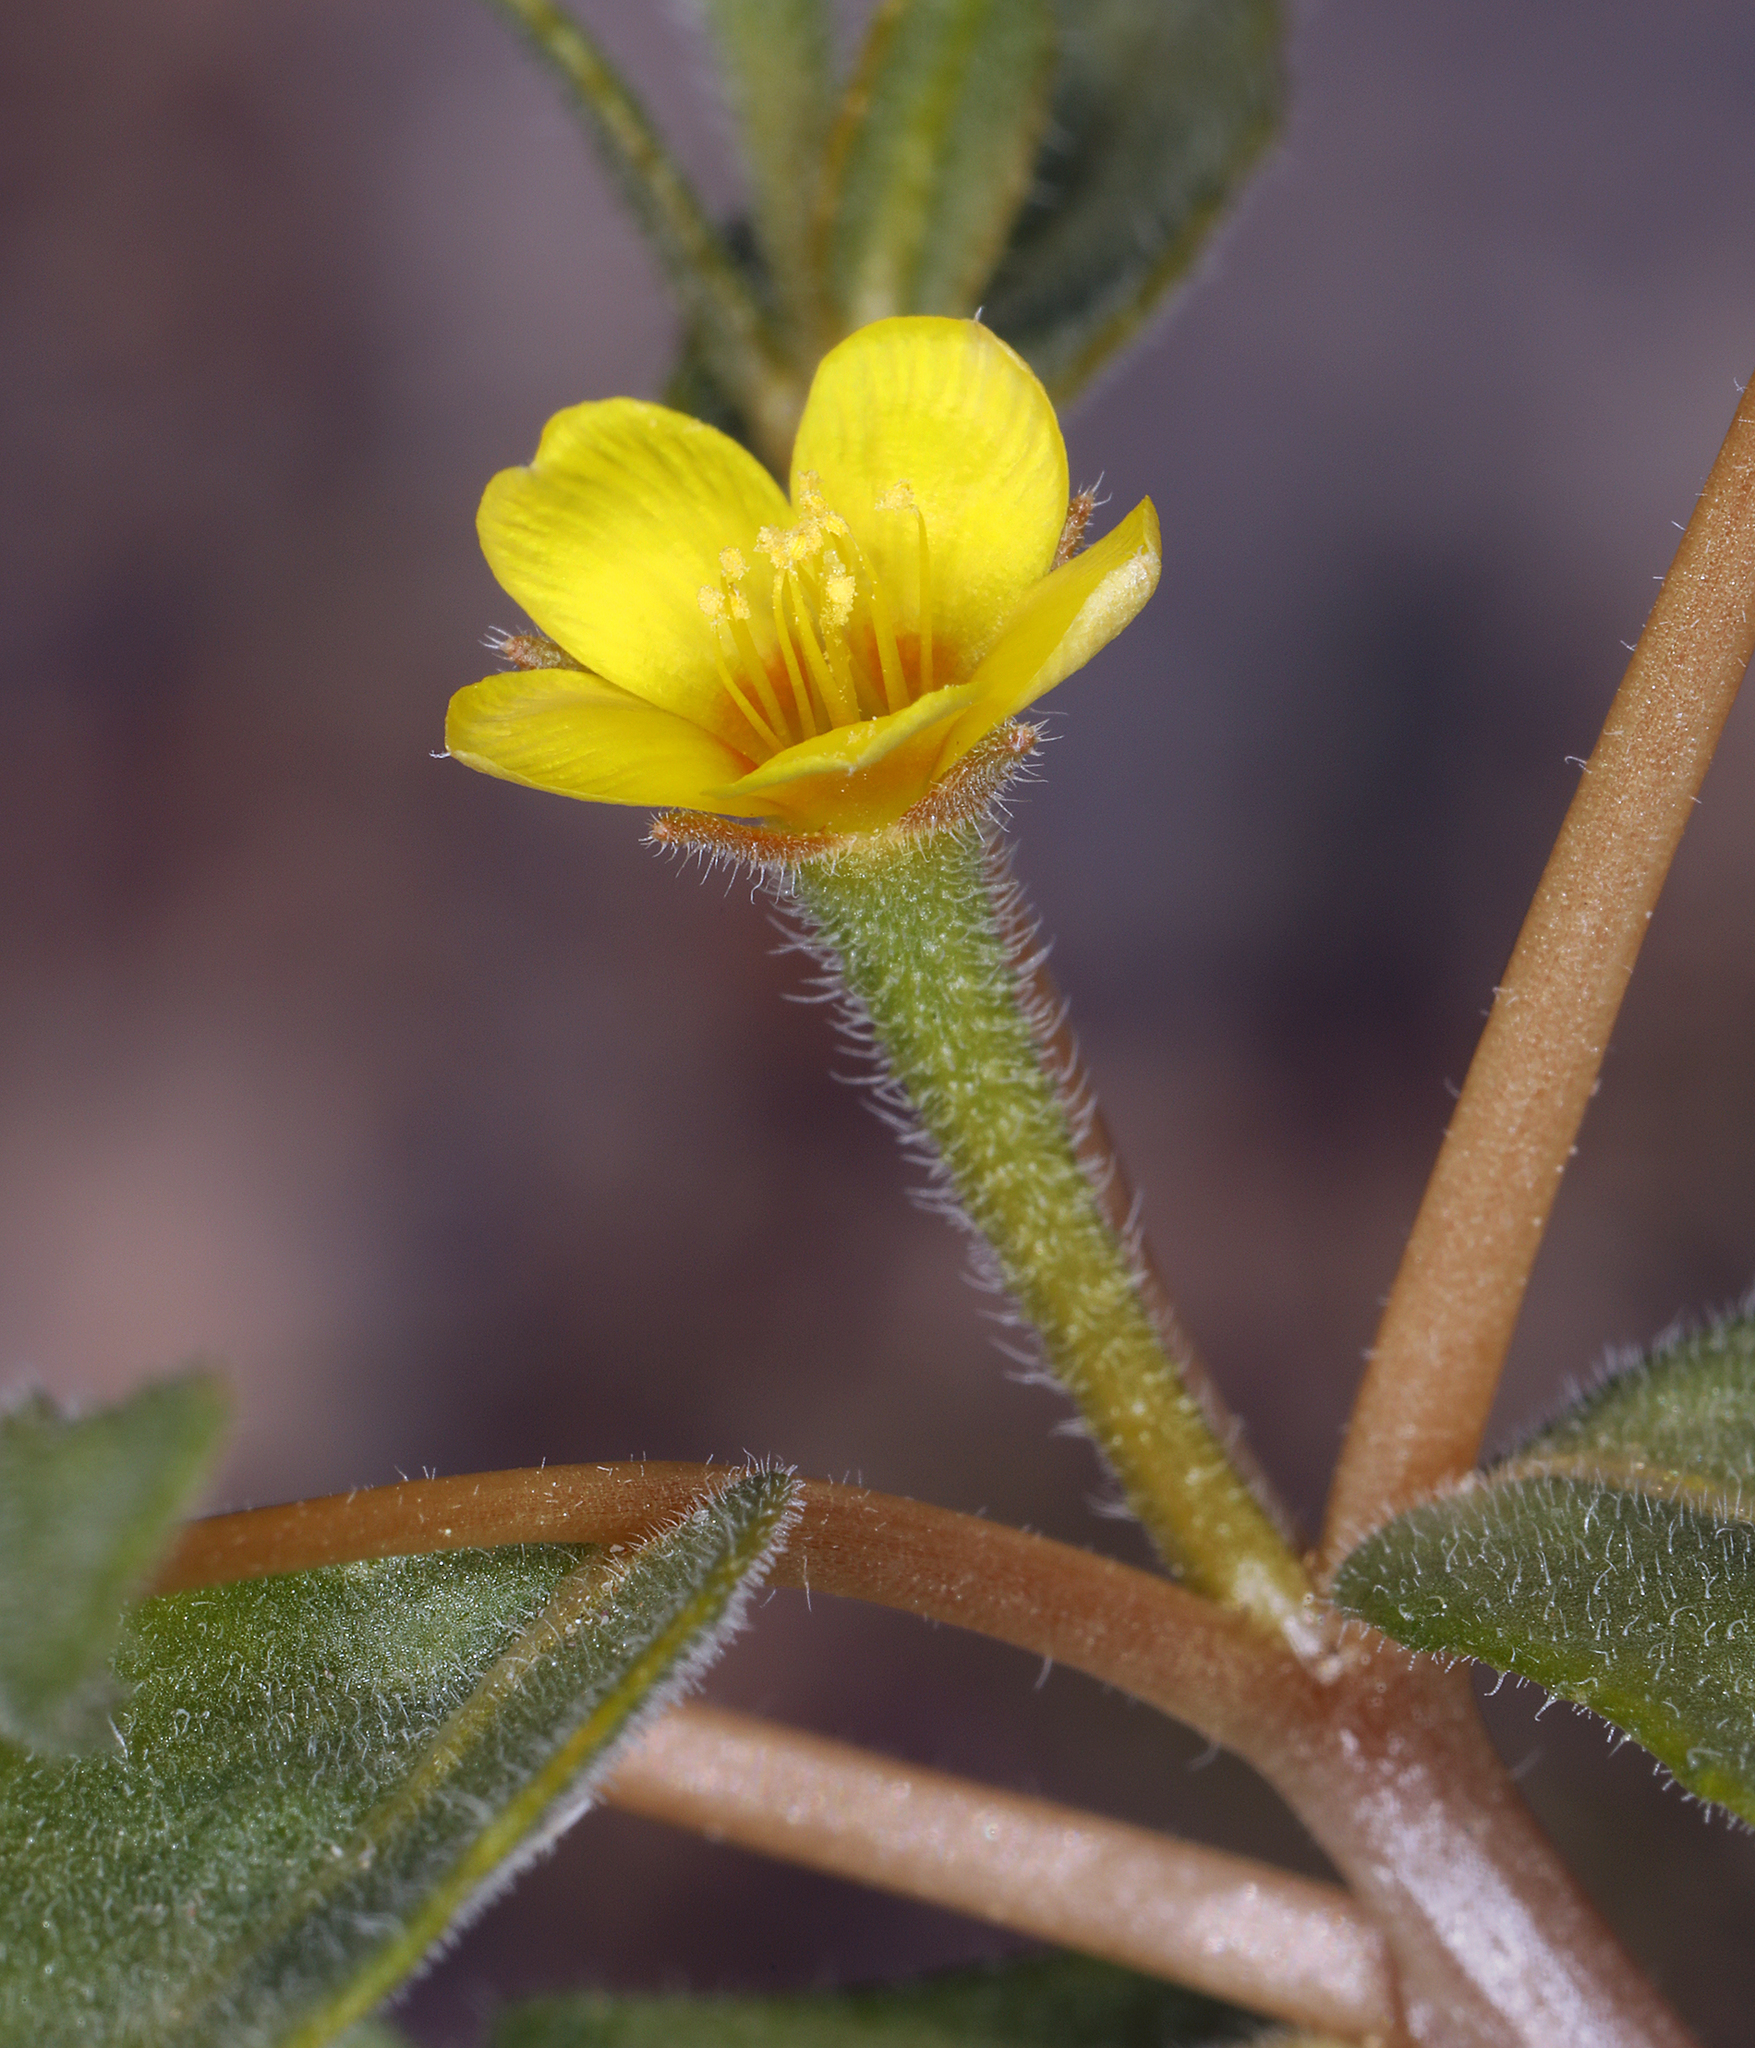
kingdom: Plantae
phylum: Tracheophyta
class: Magnoliopsida
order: Cornales
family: Loasaceae
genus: Mentzelia
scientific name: Mentzelia albicaulis
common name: White-stem blazingstar
